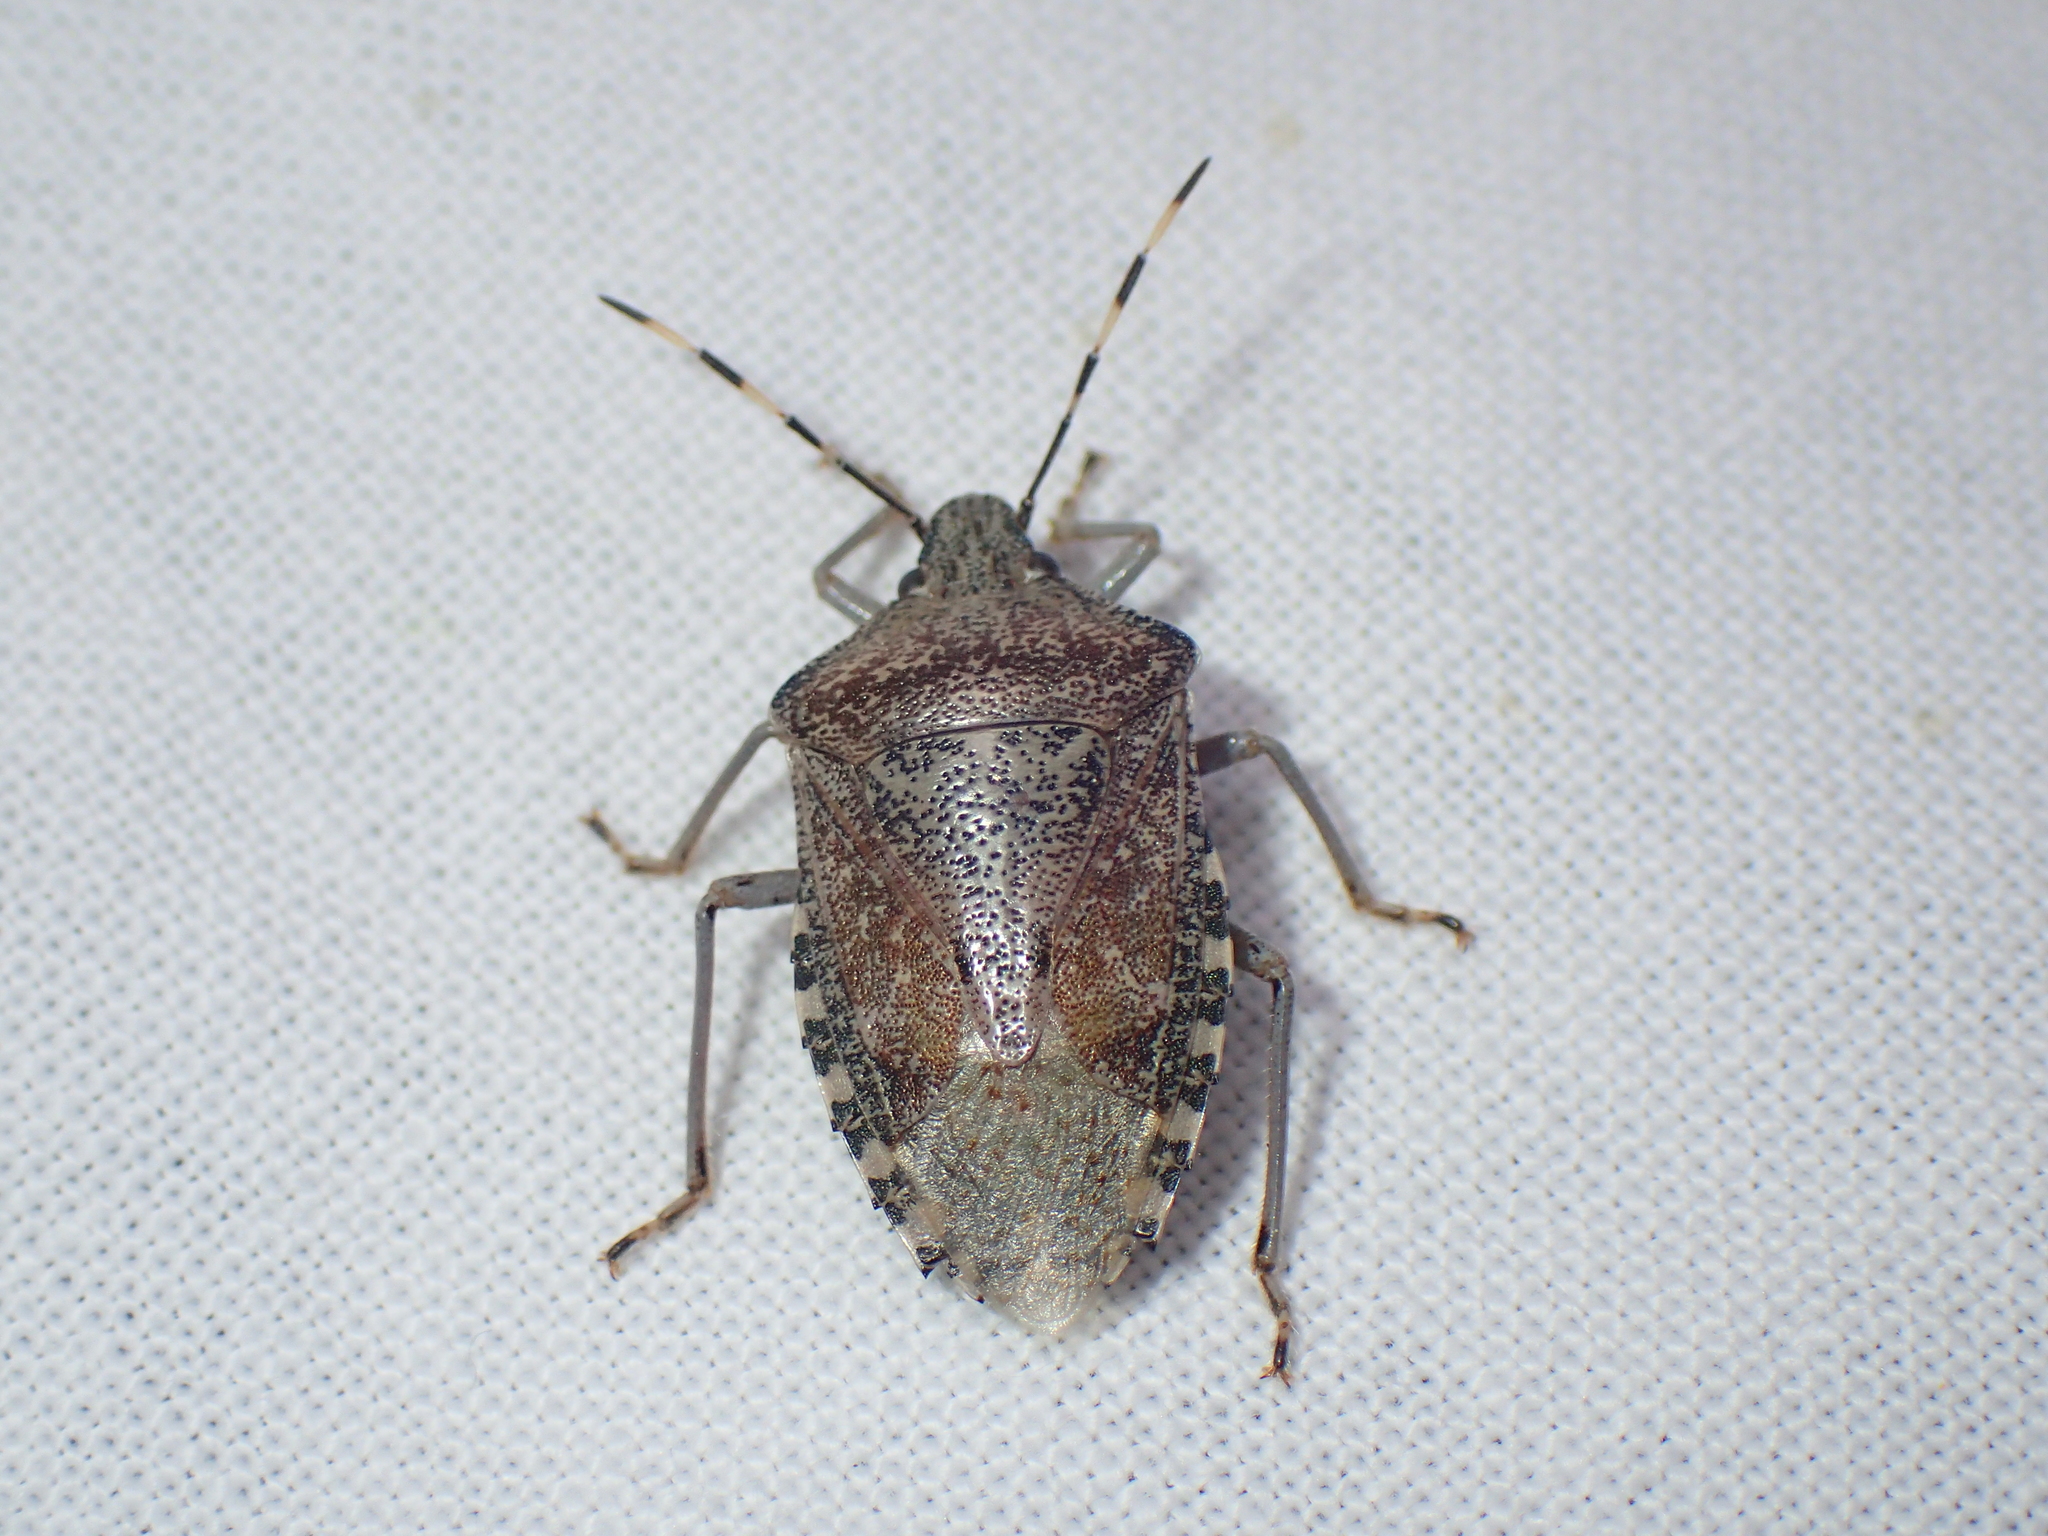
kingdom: Animalia
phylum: Arthropoda
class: Insecta
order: Hemiptera
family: Pentatomidae
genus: Rhaphigaster
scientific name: Rhaphigaster nebulosa
